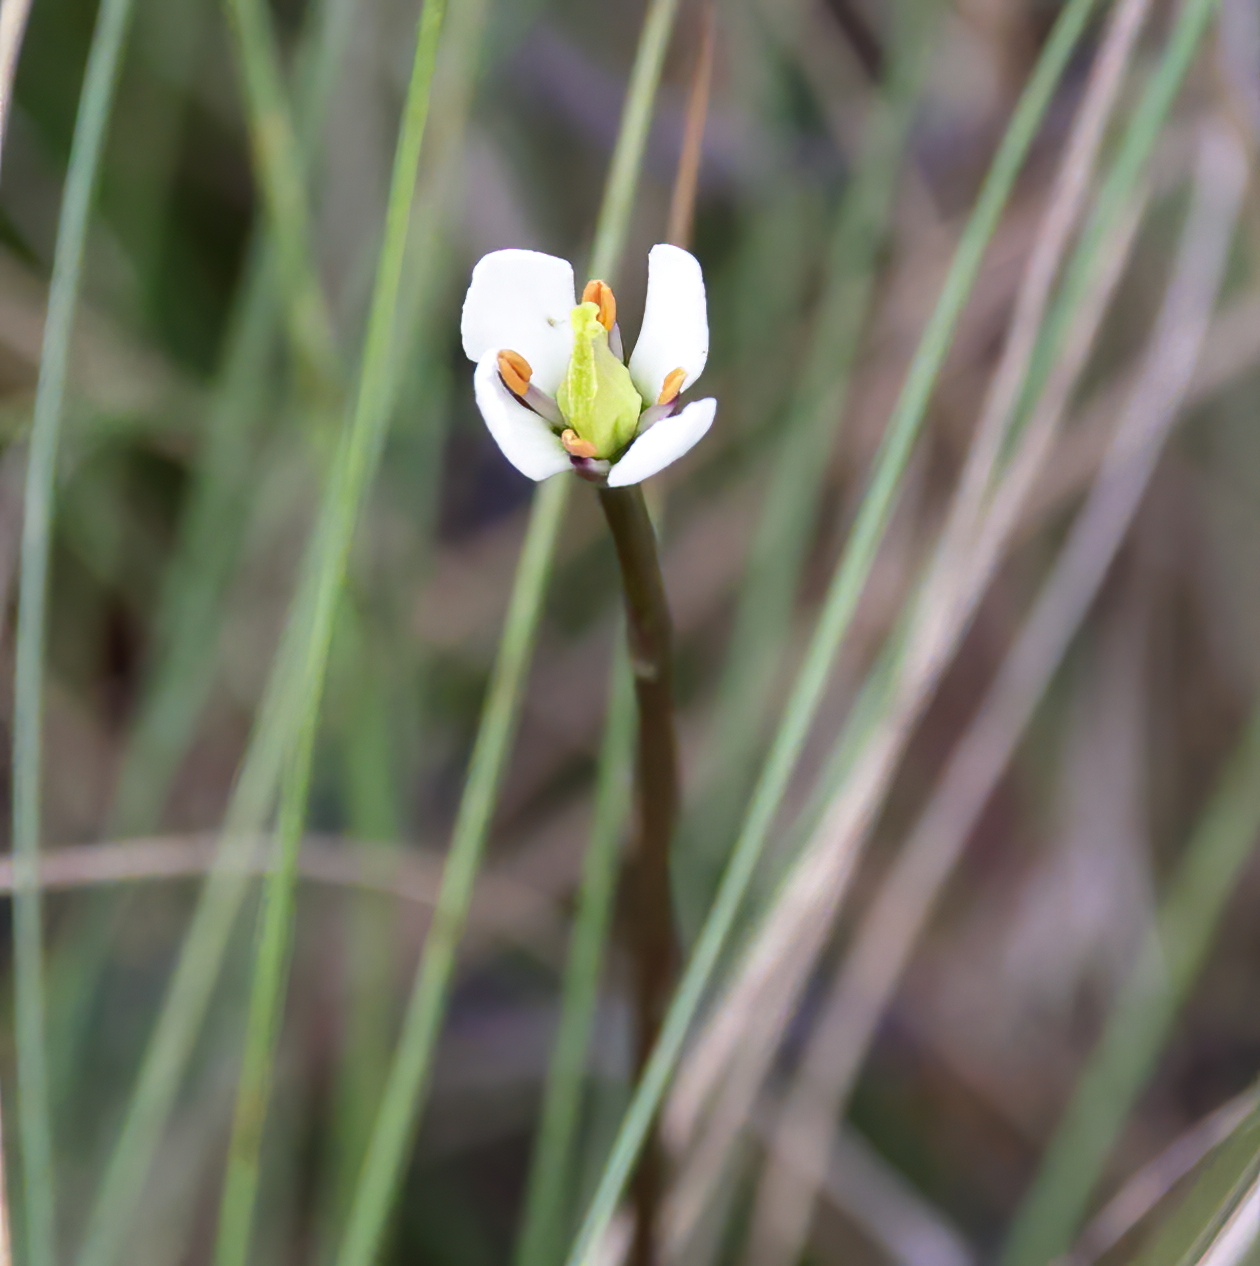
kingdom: Plantae
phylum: Tracheophyta
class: Magnoliopsida
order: Gentianales
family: Gentianaceae
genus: Bartonia
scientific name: Bartonia verna
